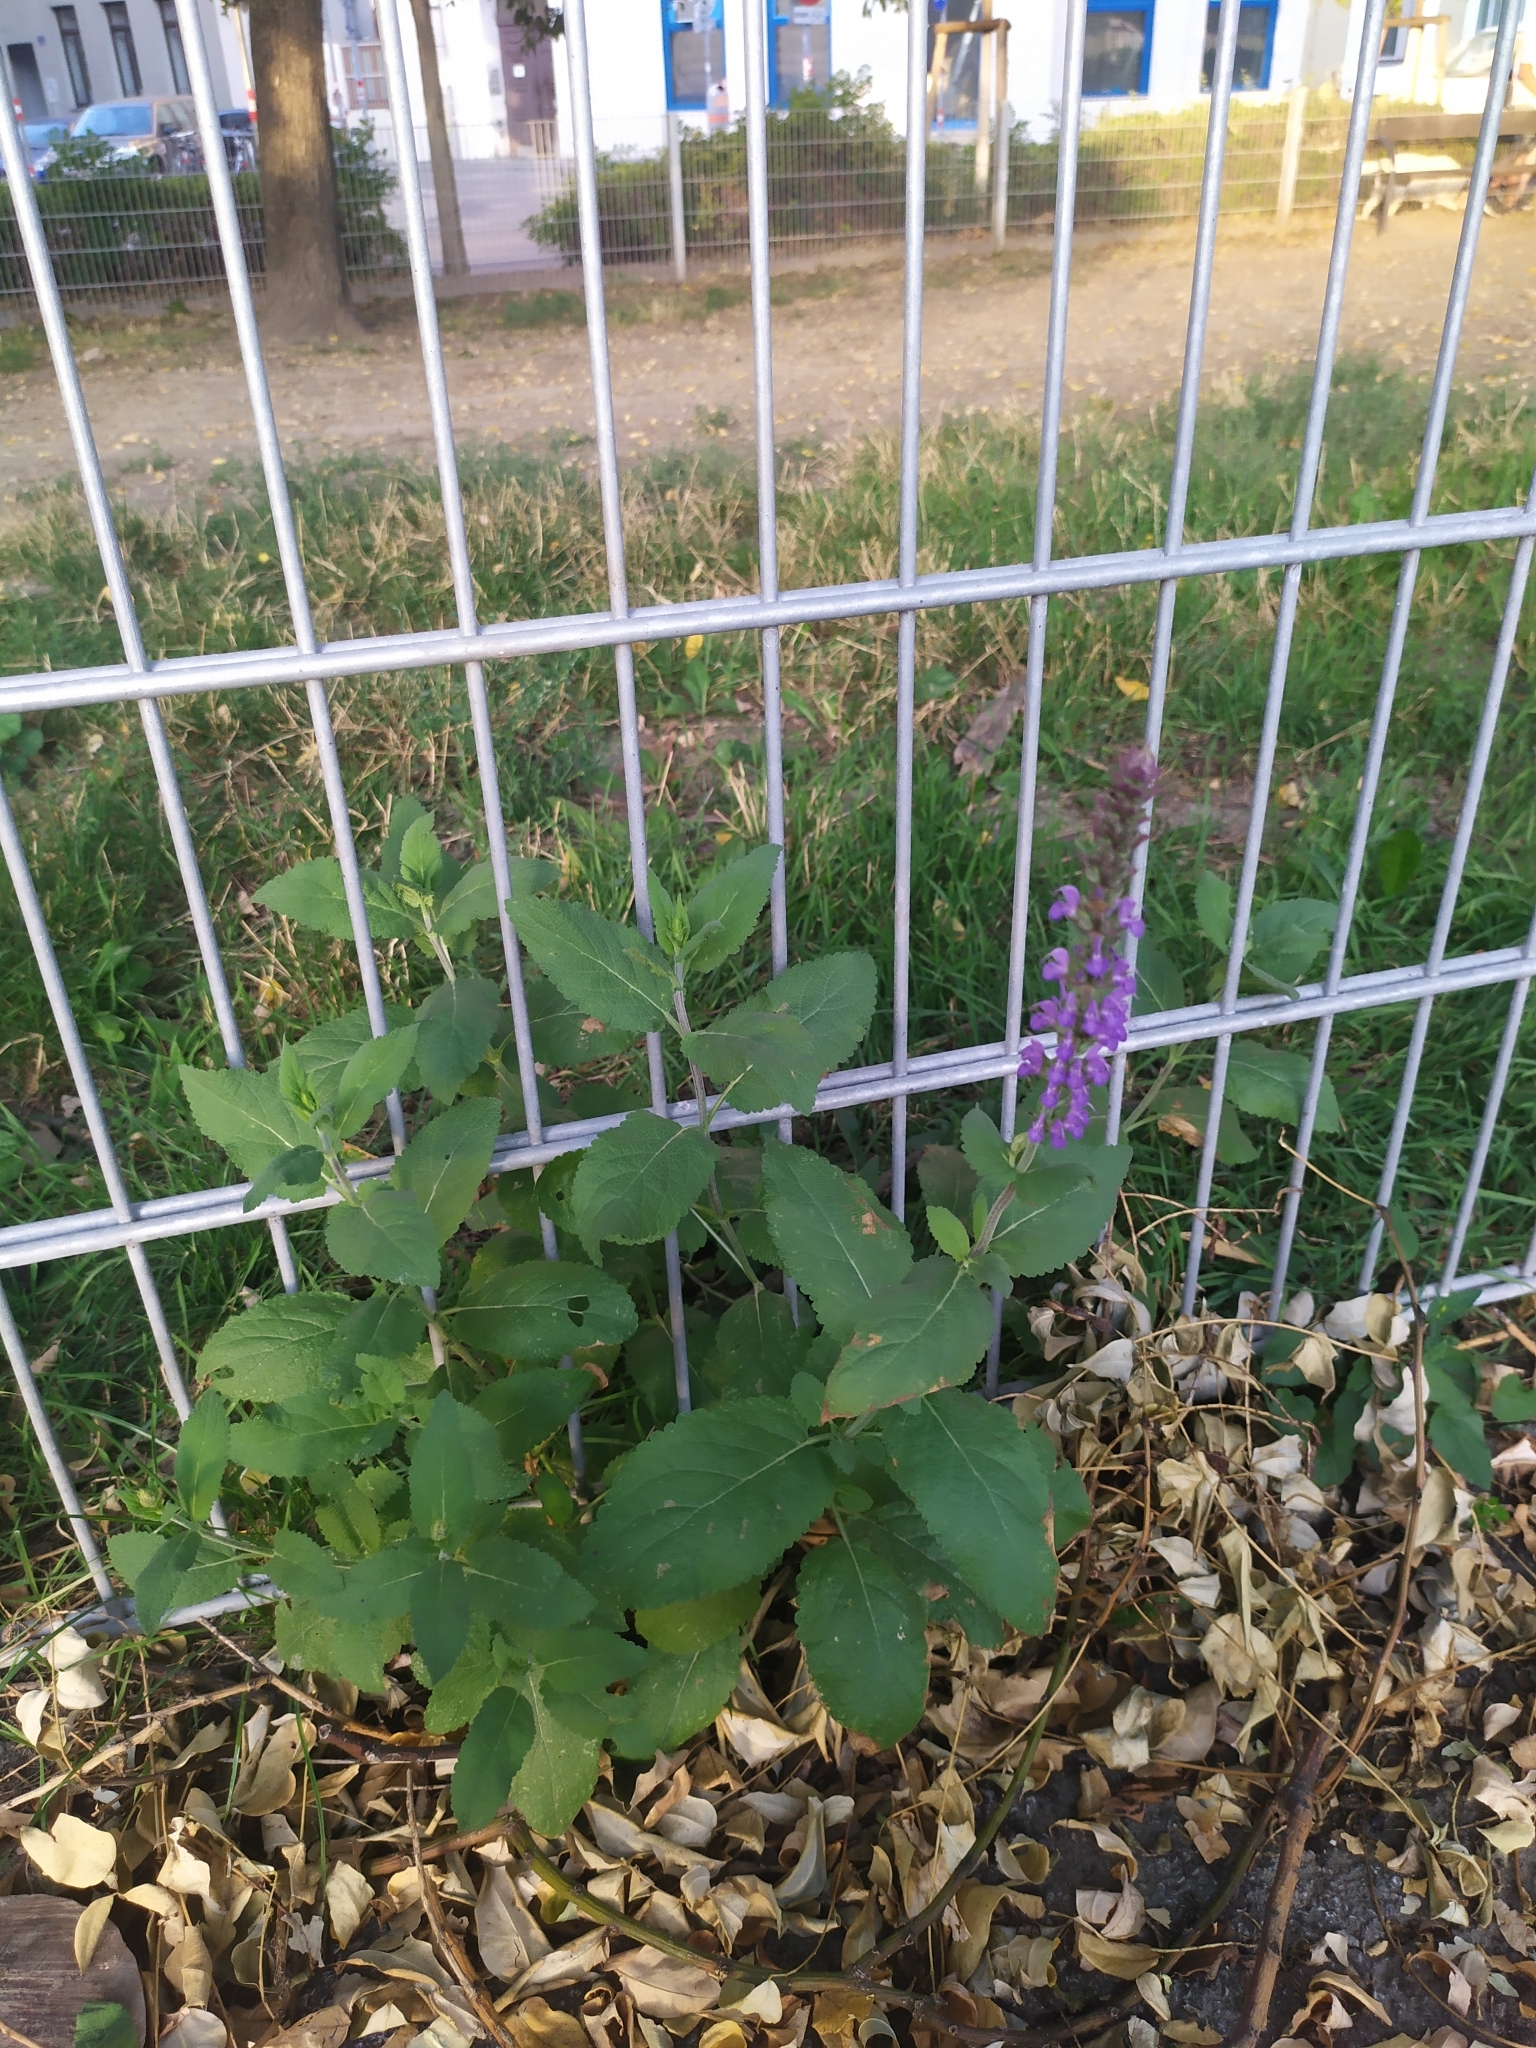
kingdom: Plantae
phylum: Tracheophyta
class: Magnoliopsida
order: Lamiales
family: Lamiaceae
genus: Salvia
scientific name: Salvia nemorosa
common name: Balkan clary
